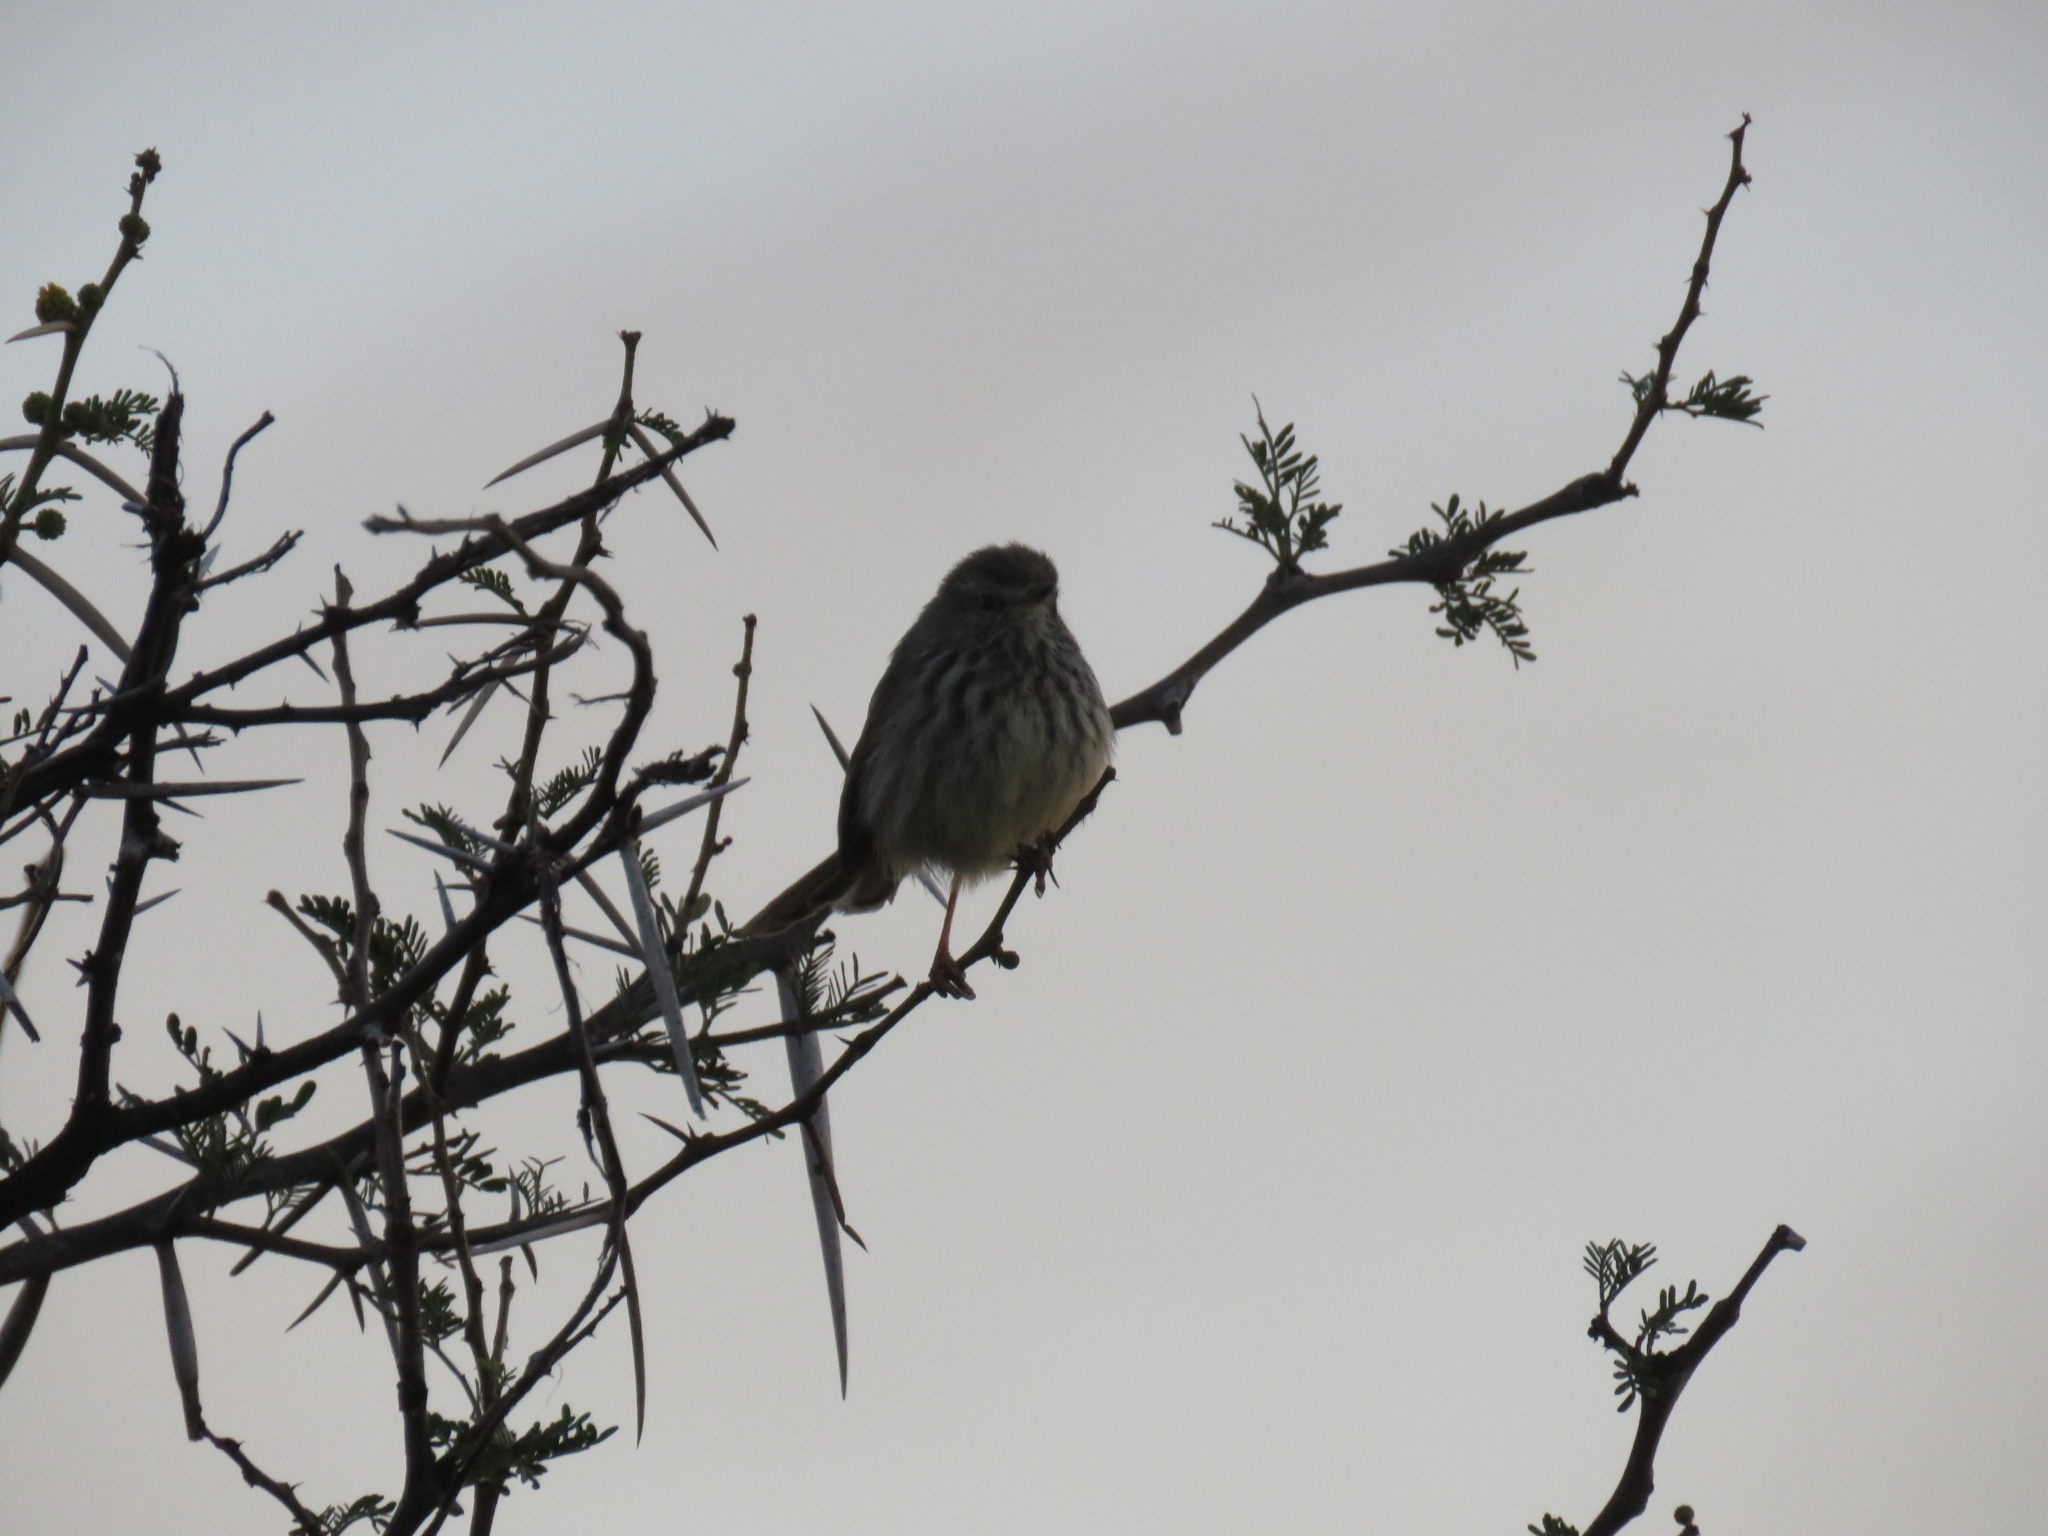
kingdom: Animalia
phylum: Chordata
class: Aves
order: Passeriformes
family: Cisticolidae
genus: Prinia
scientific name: Prinia maculosa
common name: Karoo prinia
